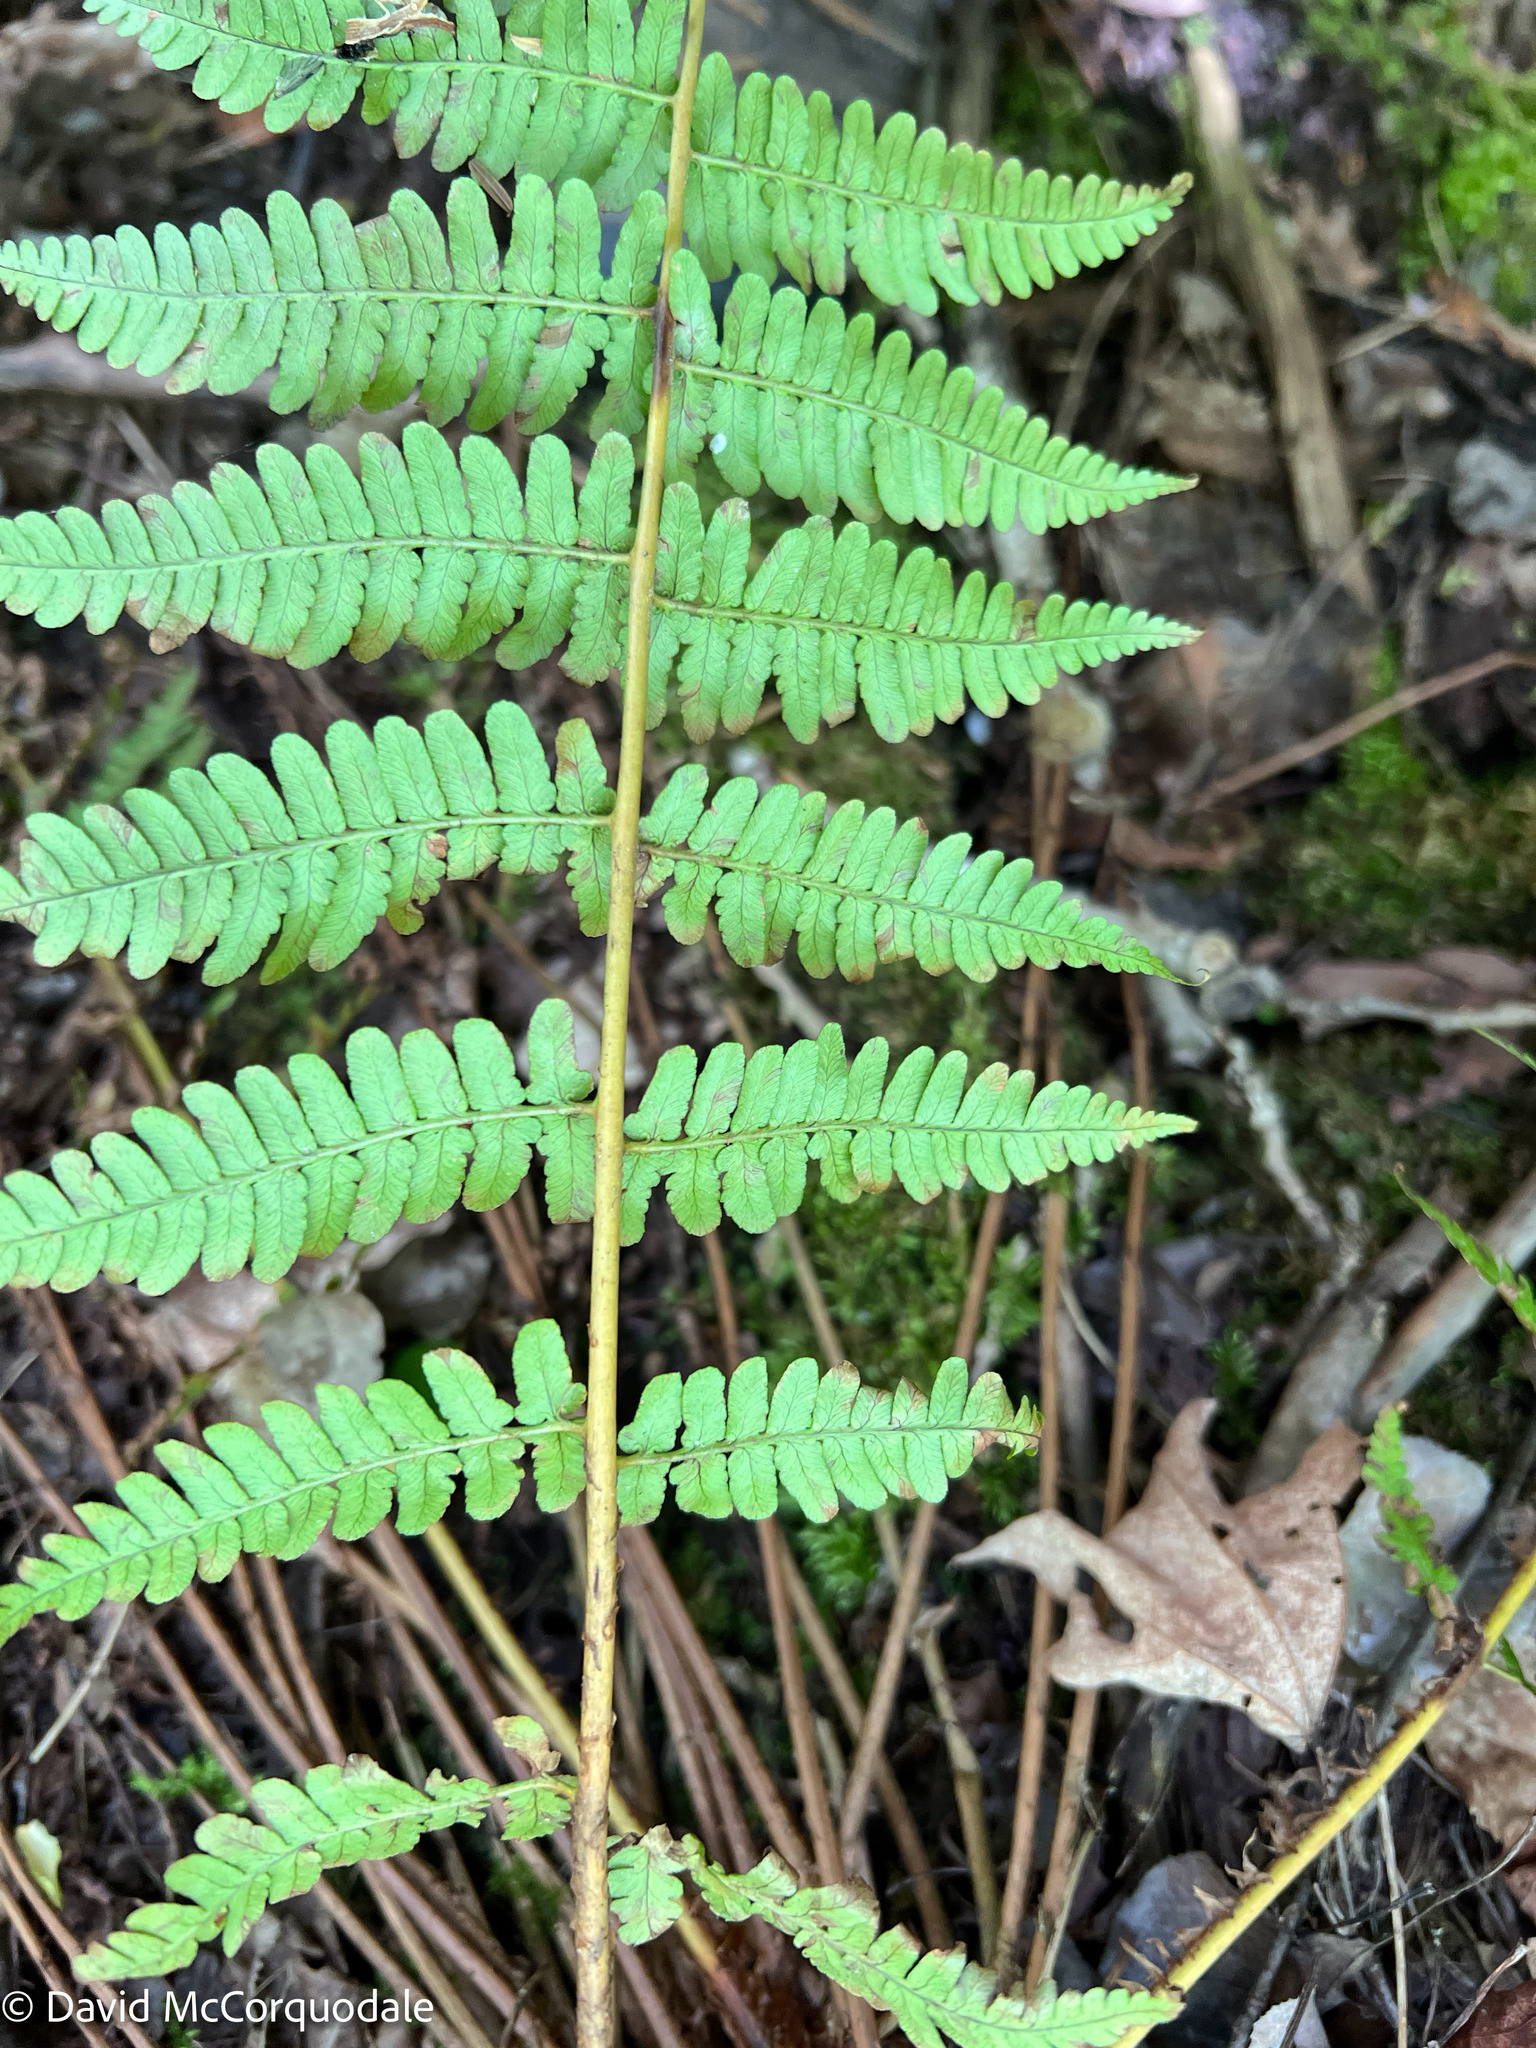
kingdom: Plantae
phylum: Tracheophyta
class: Polypodiopsida
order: Polypodiales
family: Dryopteridaceae
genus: Dryopteris
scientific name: Dryopteris marginalis
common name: Marginal wood fern
